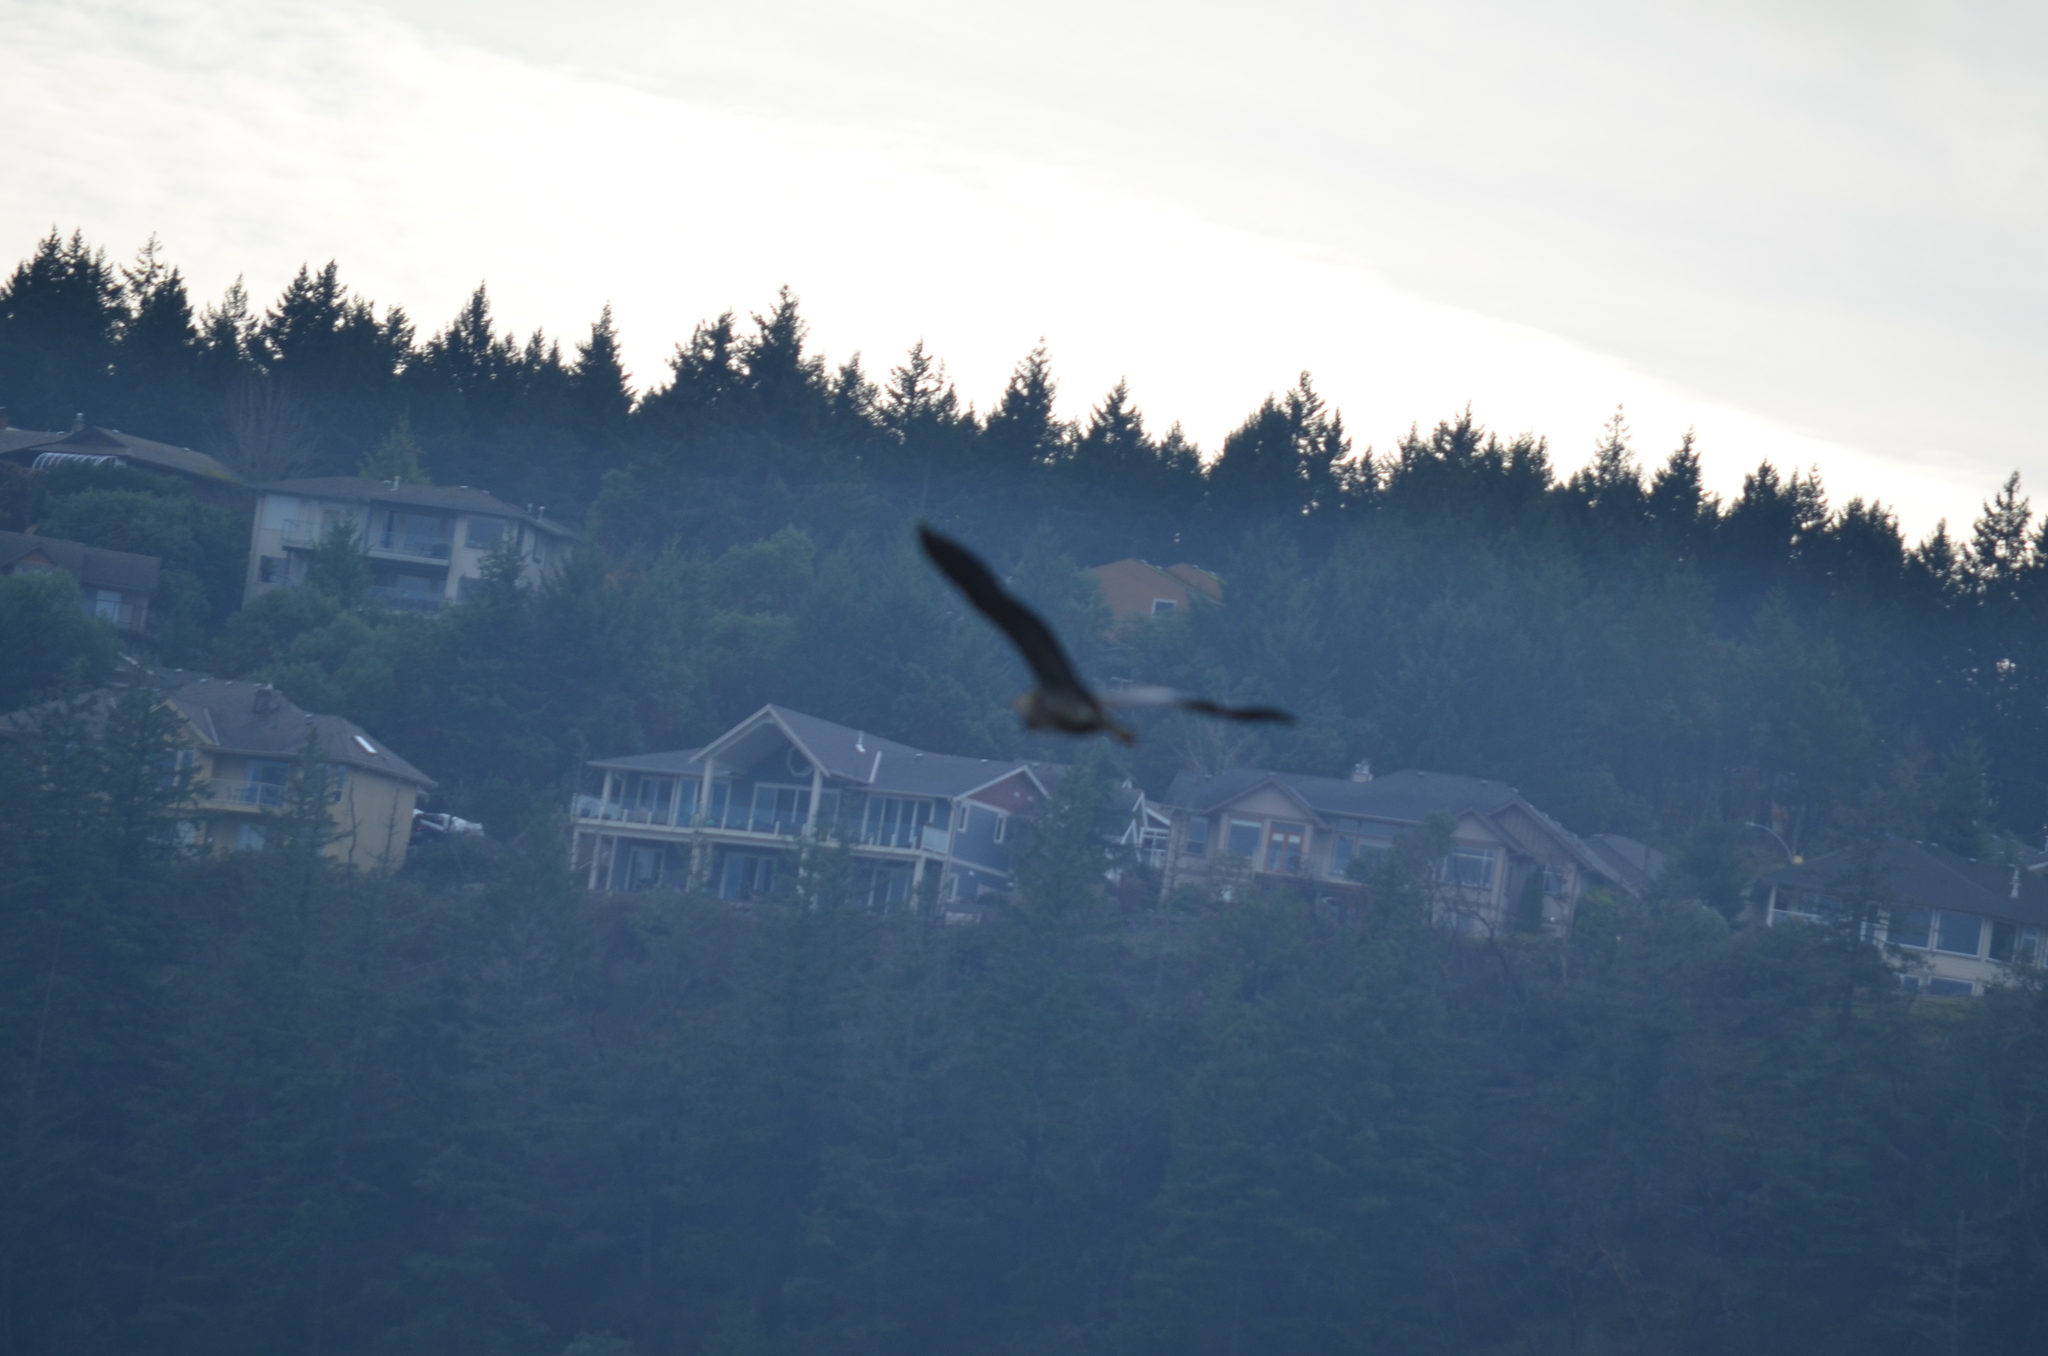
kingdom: Animalia
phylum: Chordata
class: Aves
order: Pelecaniformes
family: Ardeidae
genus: Ardea
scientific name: Ardea herodias
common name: Great blue heron
